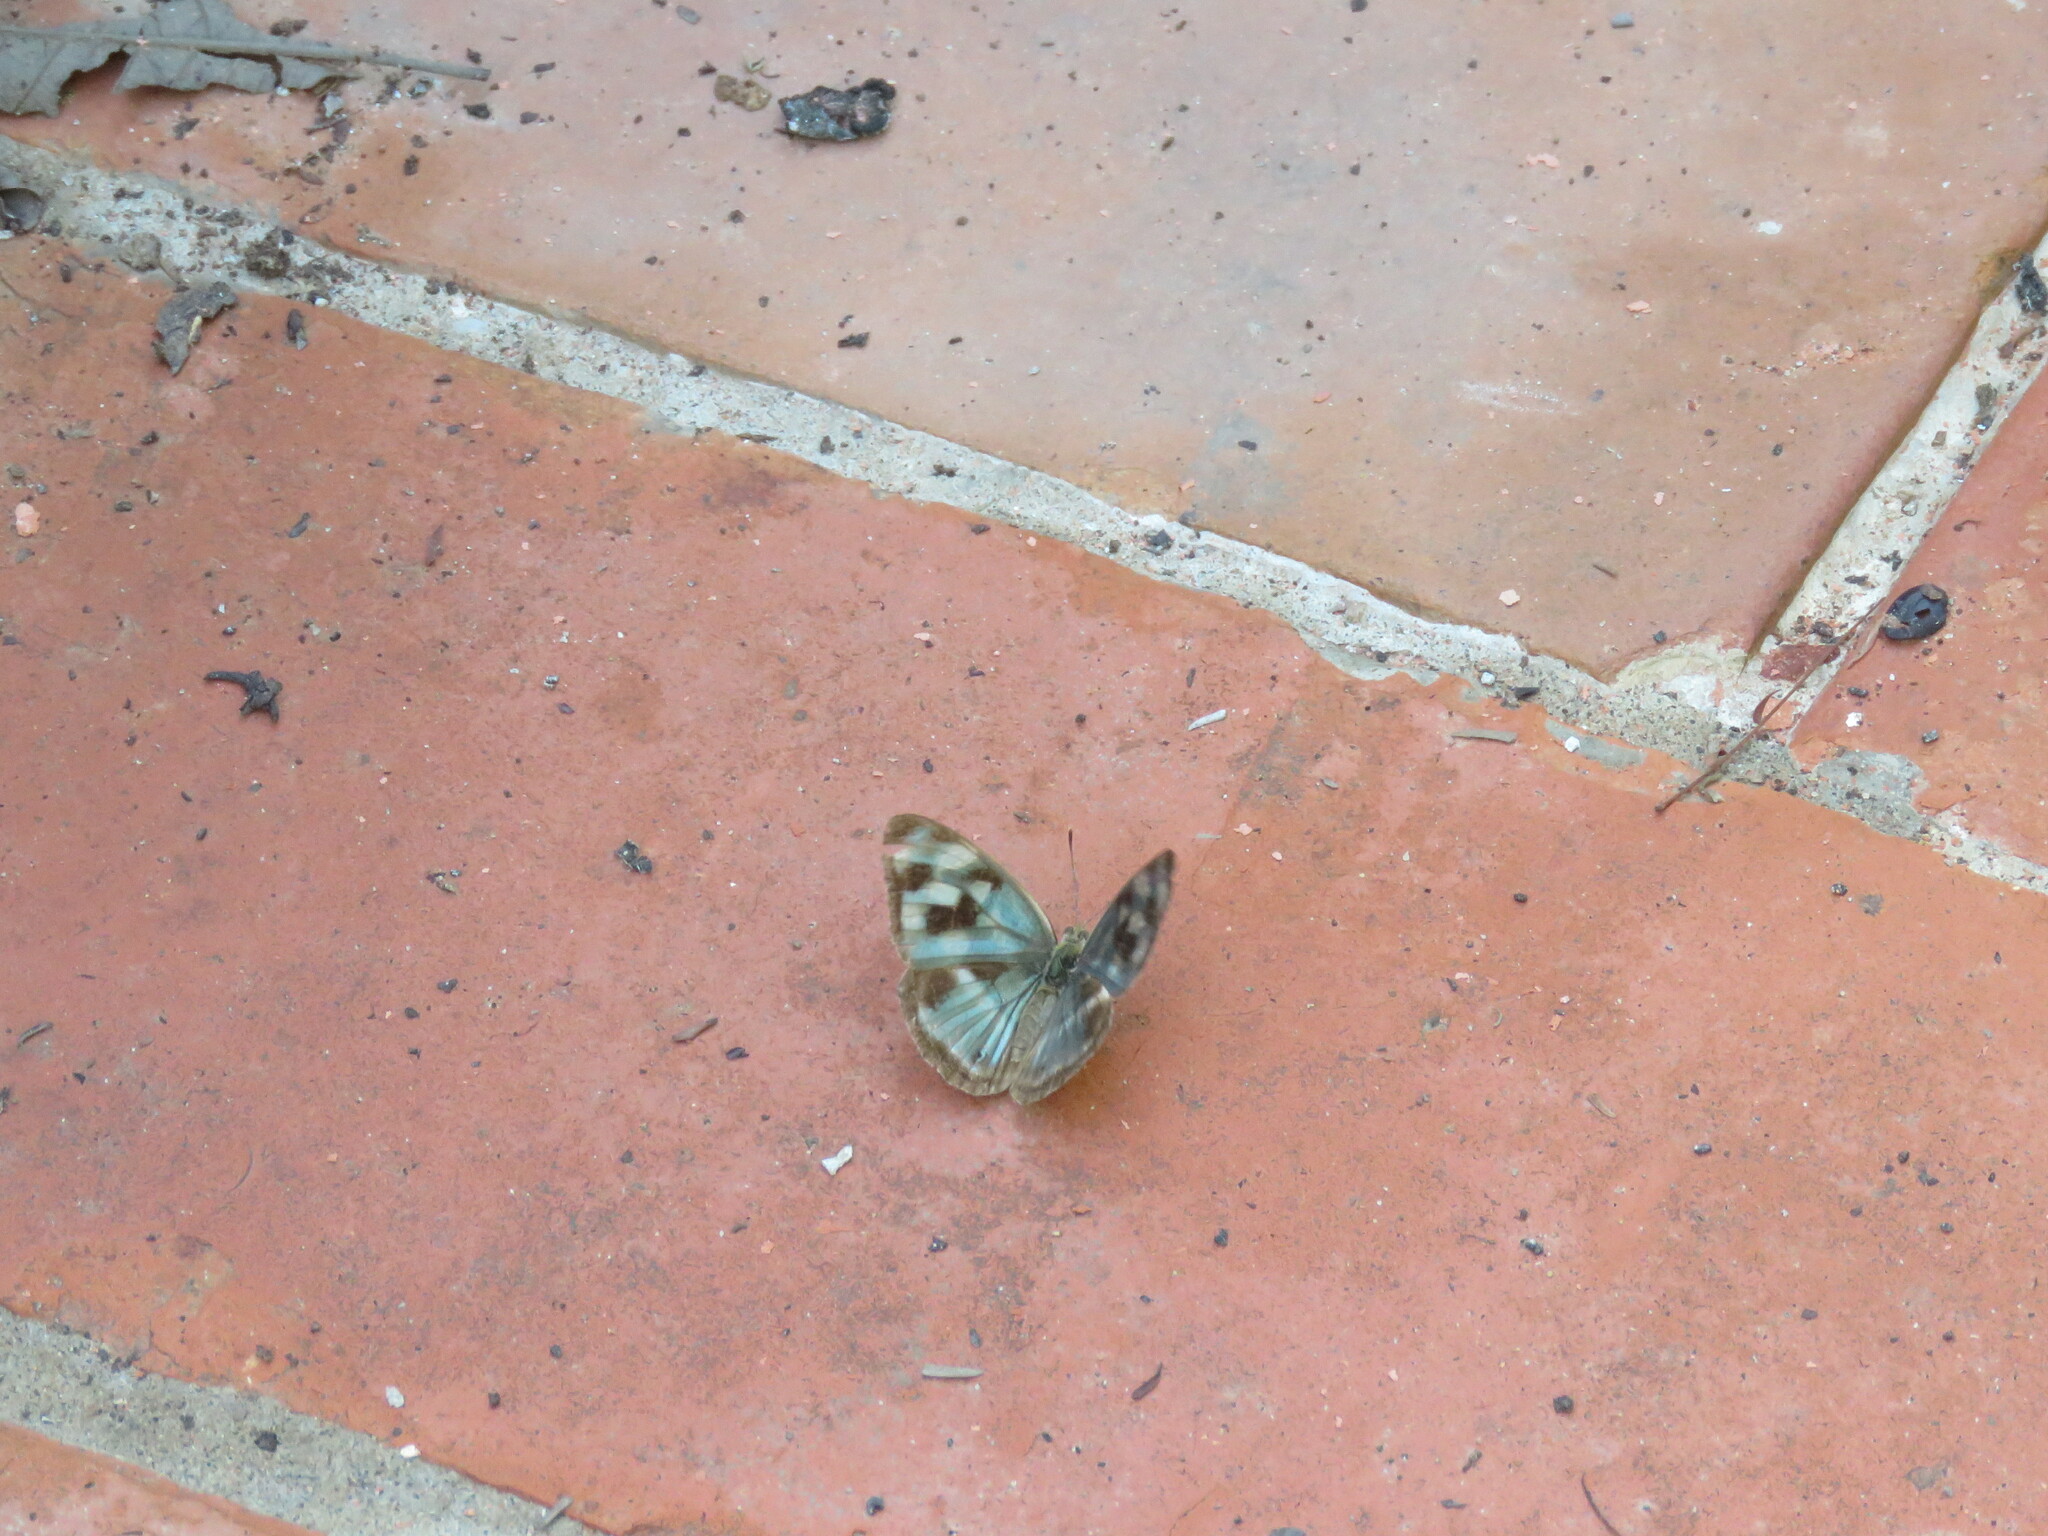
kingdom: Animalia
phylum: Arthropoda
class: Insecta
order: Lepidoptera
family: Nymphalidae
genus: Dynamine
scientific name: Dynamine mylitta
